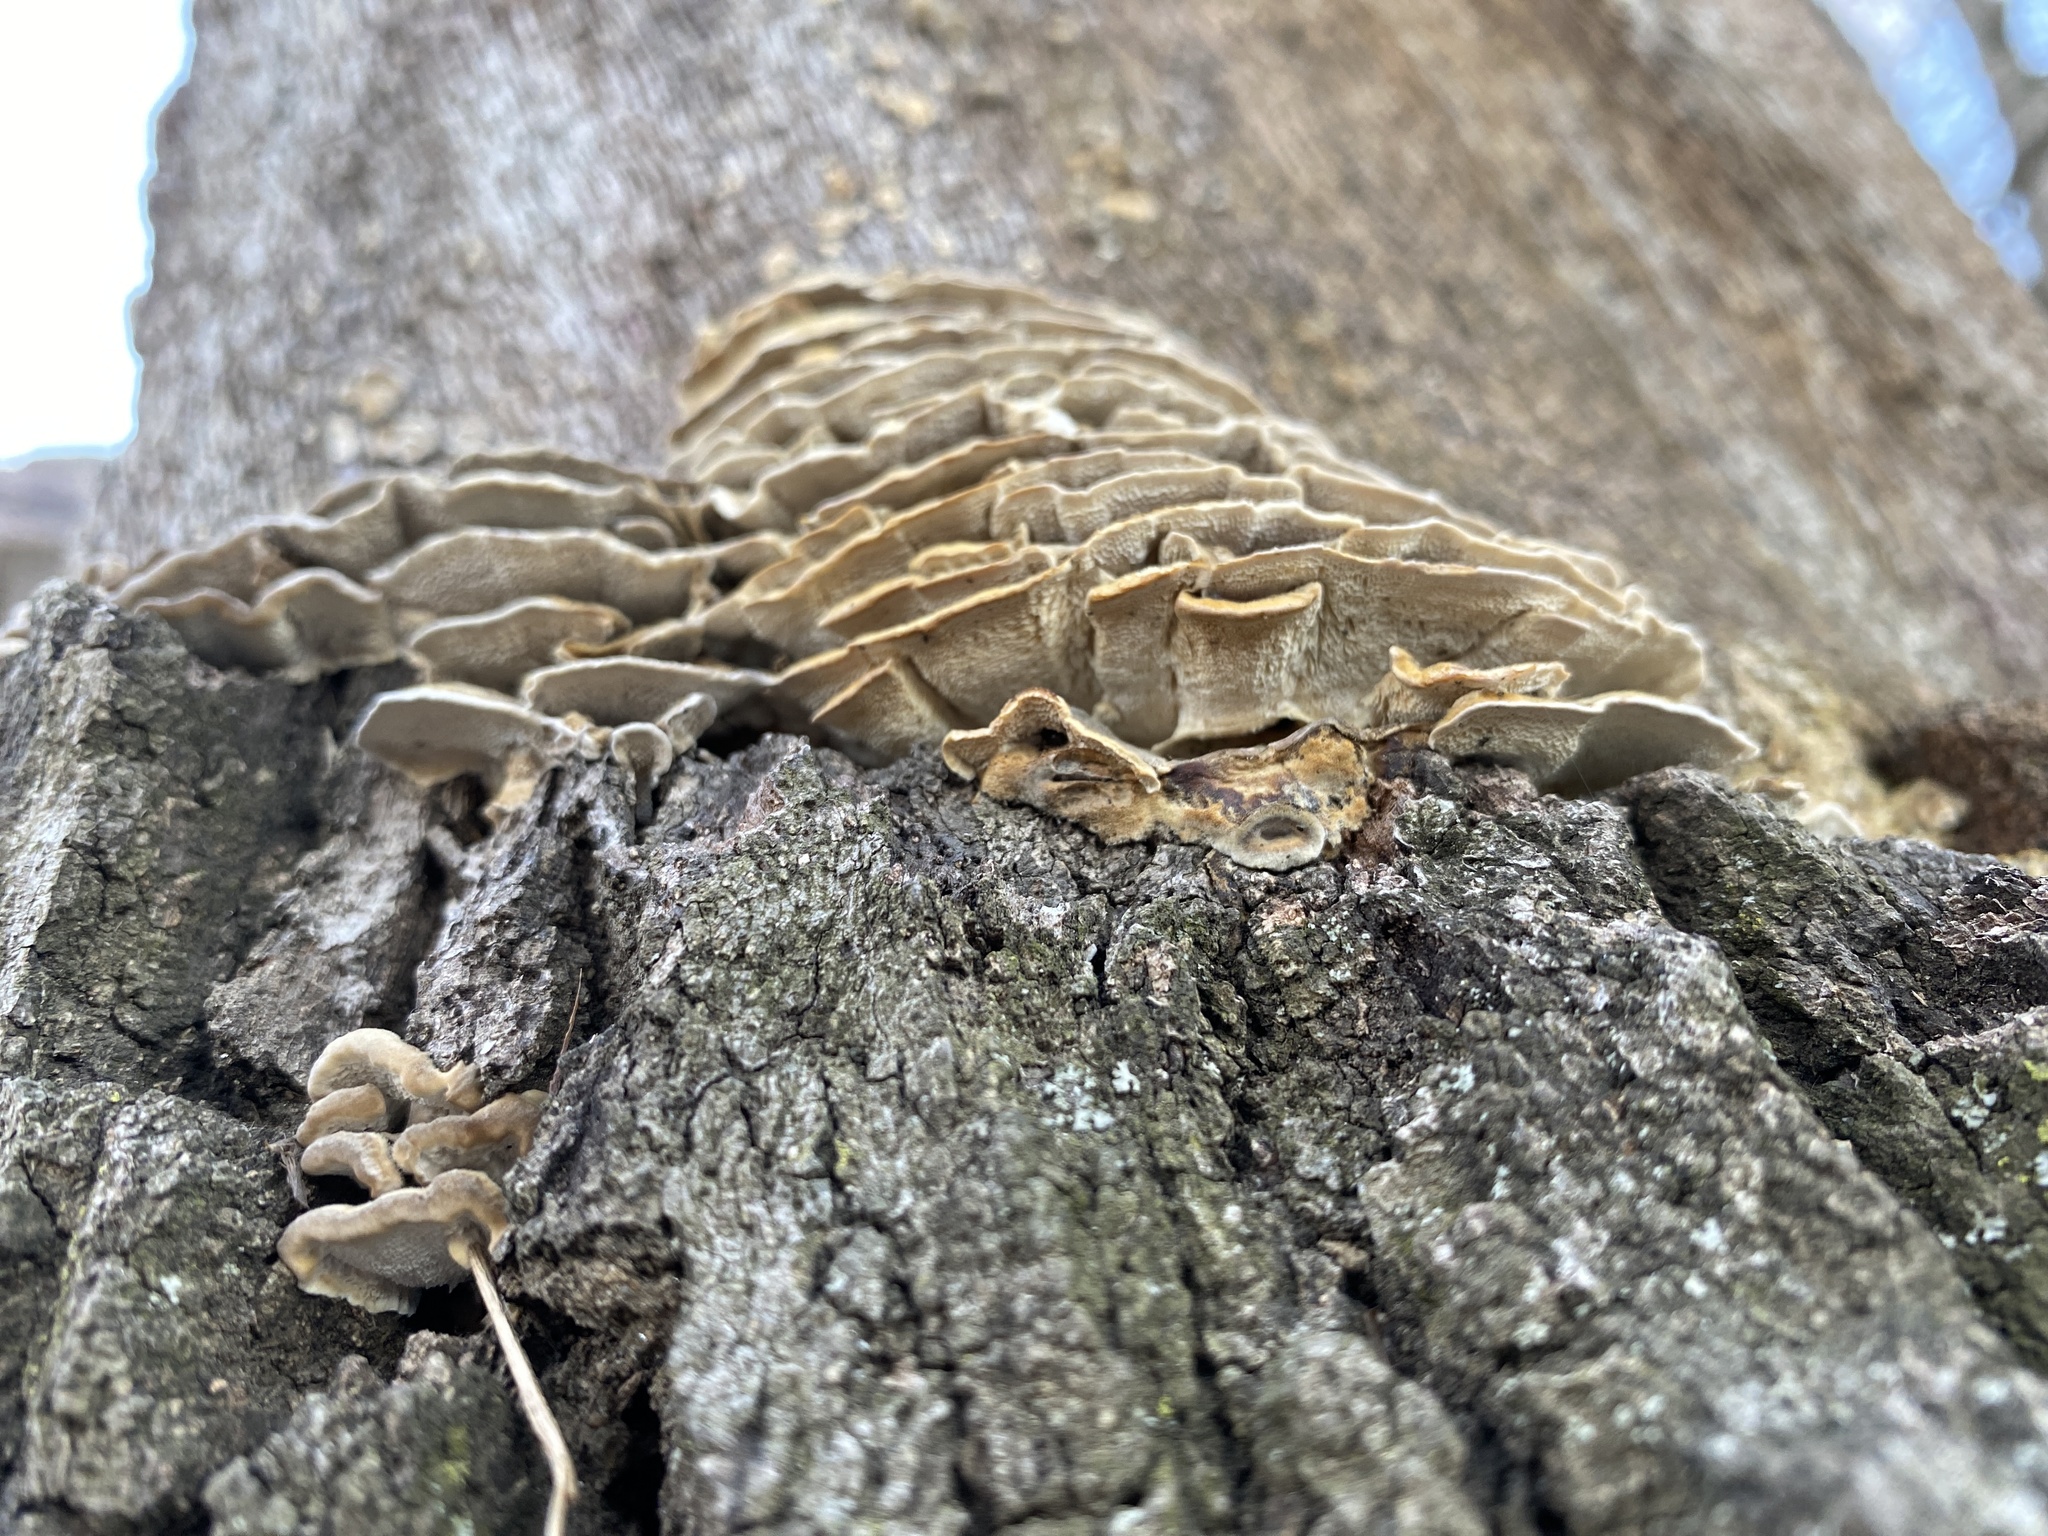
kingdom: Fungi
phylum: Basidiomycota
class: Agaricomycetes
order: Polyporales
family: Polyporaceae
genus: Trametes
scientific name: Trametes versicolor
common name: Turkeytail
